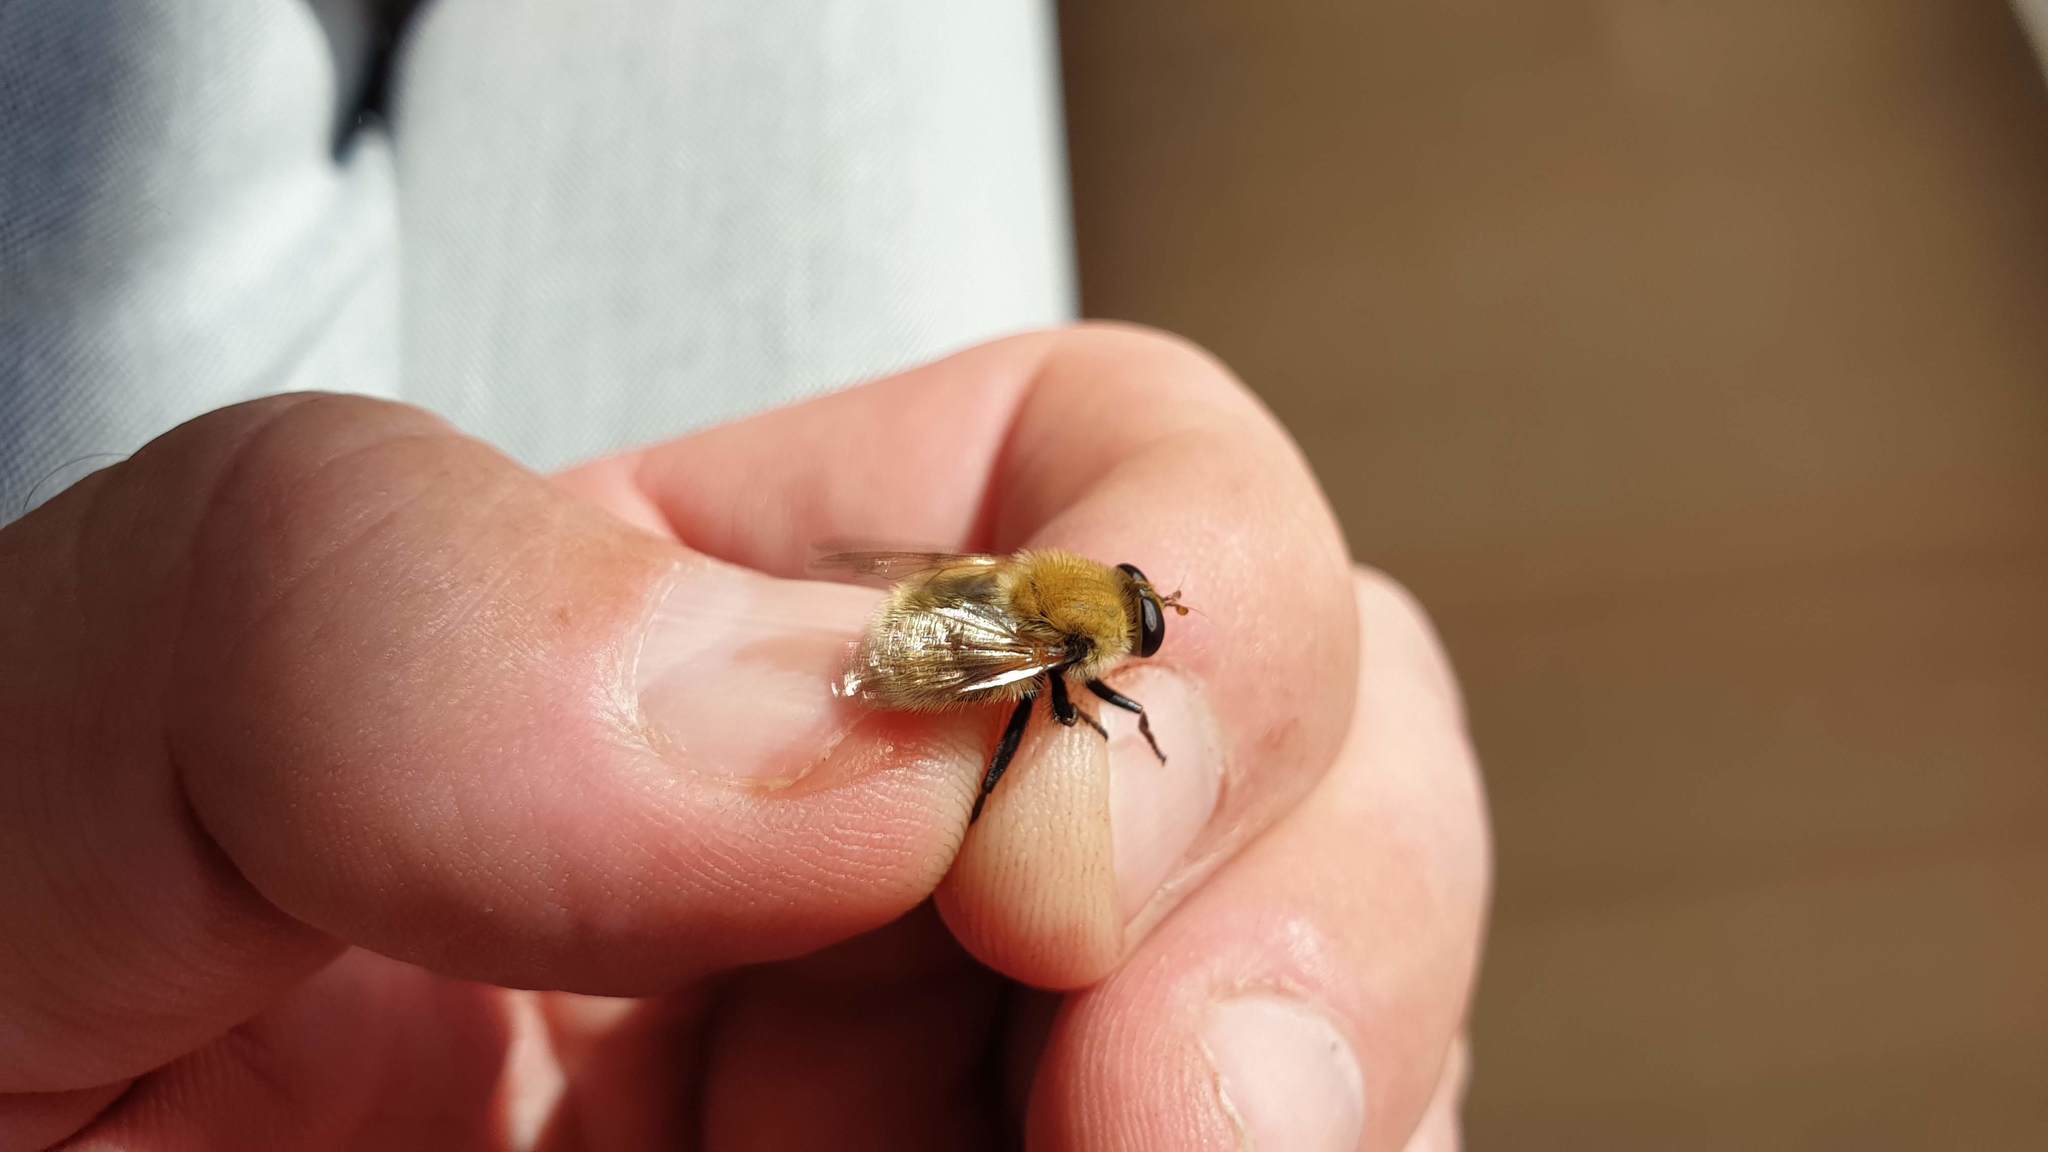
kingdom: Animalia
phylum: Arthropoda
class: Insecta
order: Diptera
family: Syrphidae
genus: Criorhina
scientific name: Criorhina berberina
